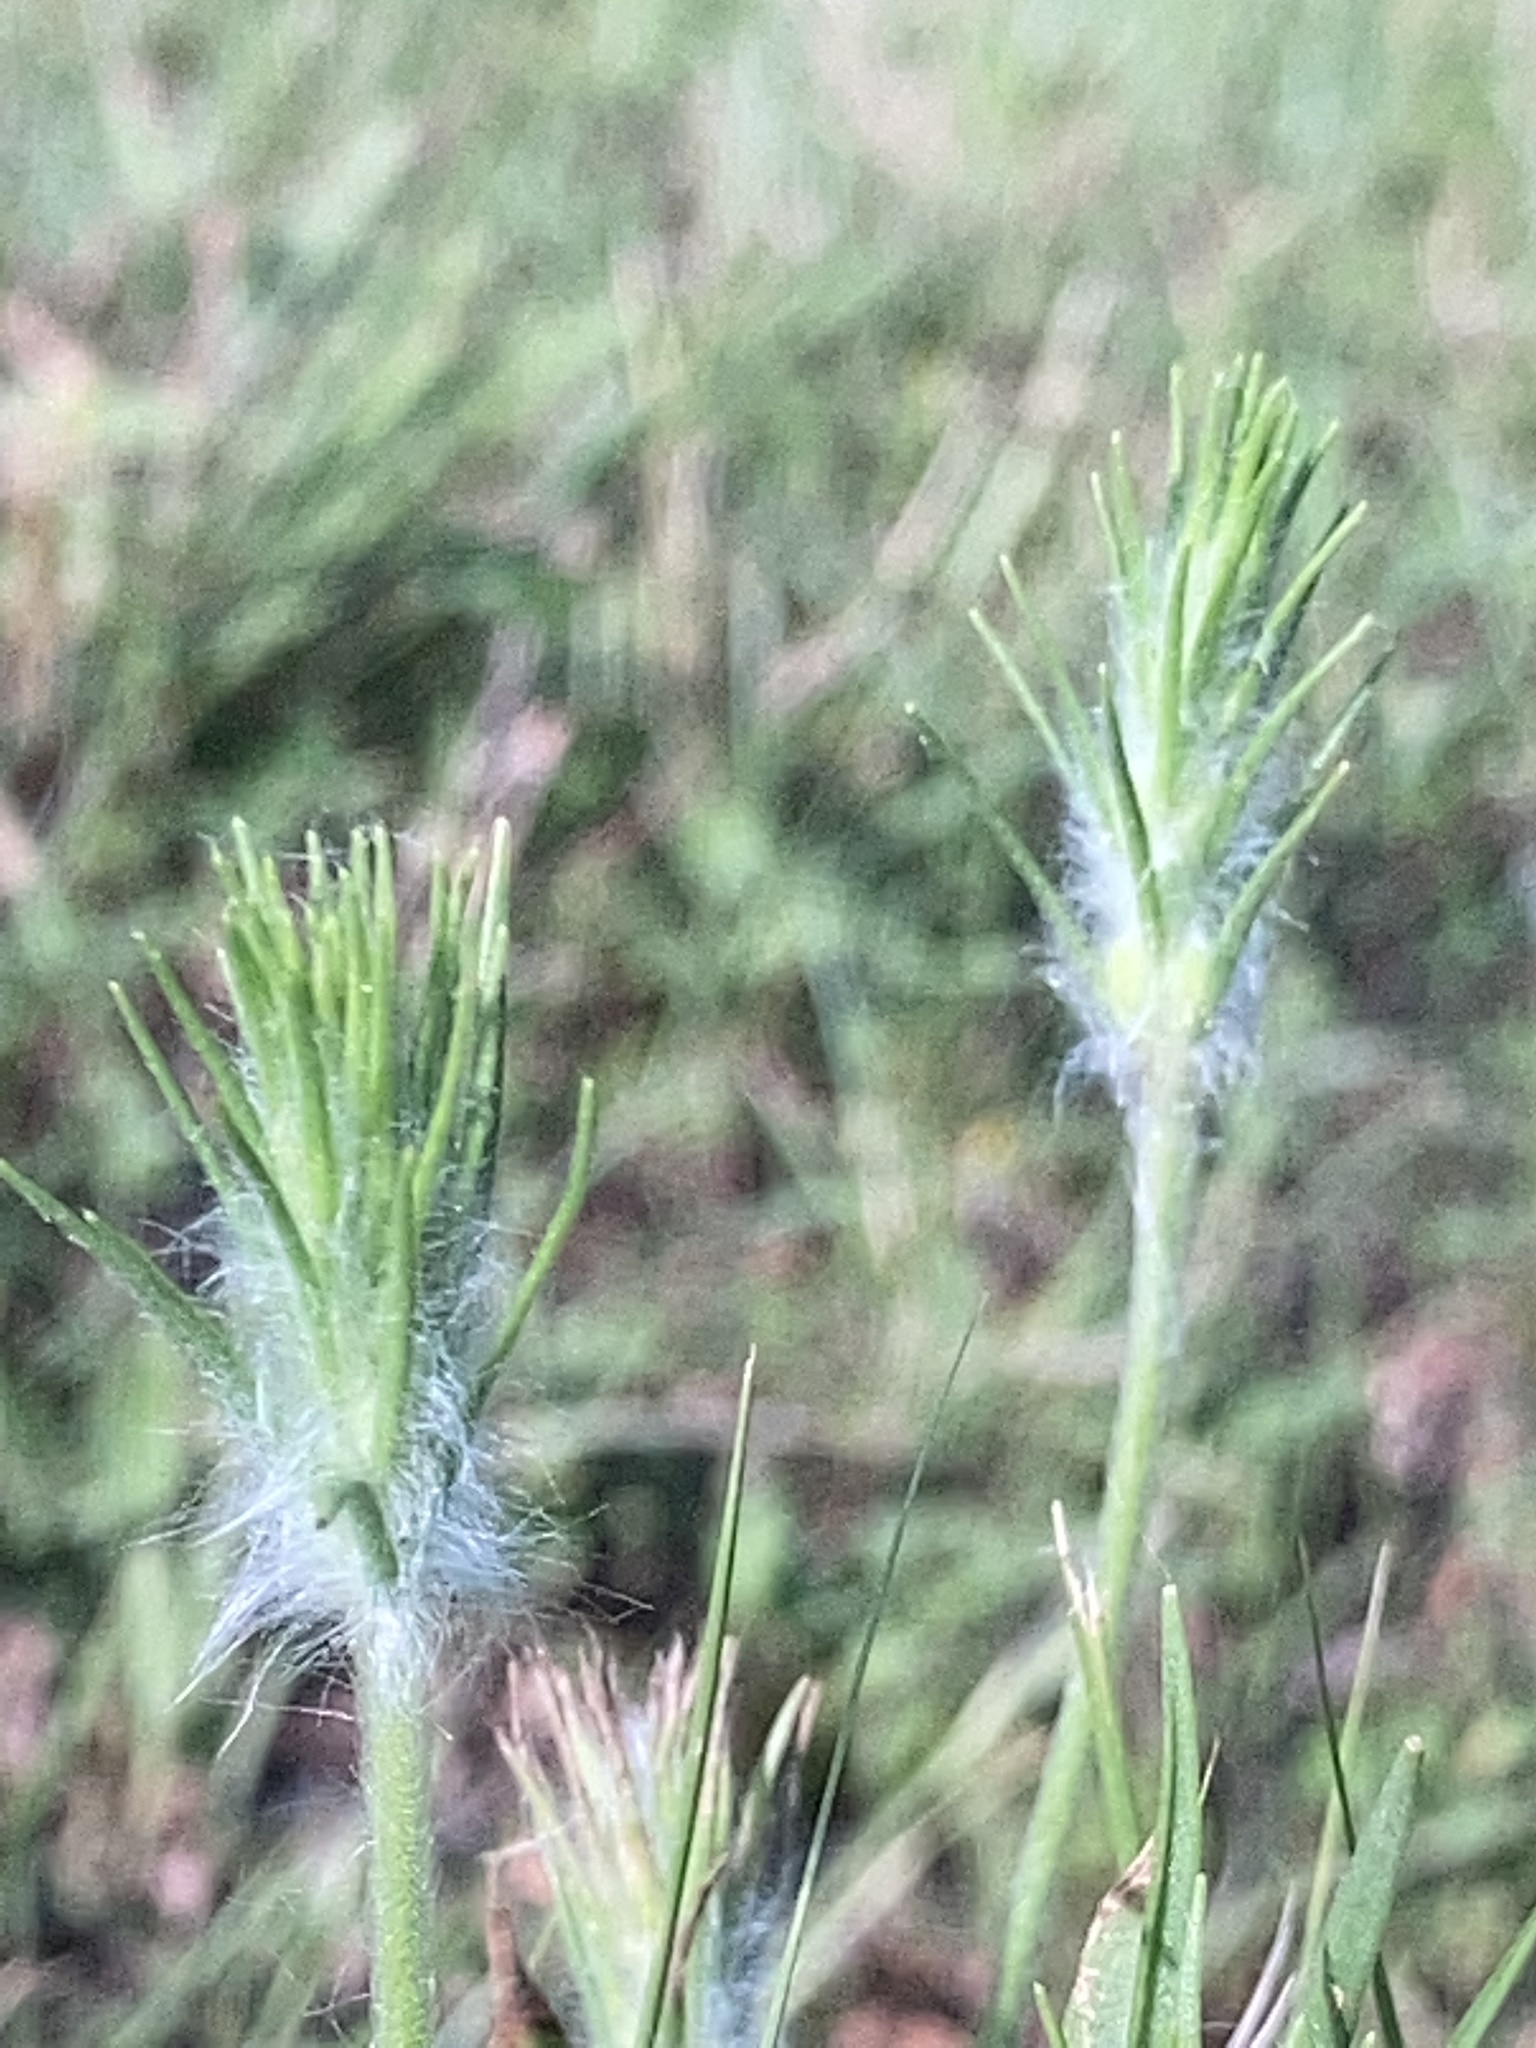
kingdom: Plantae
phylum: Tracheophyta
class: Magnoliopsida
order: Lamiales
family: Plantaginaceae
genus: Plantago
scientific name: Plantago aristata
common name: Bracted plantain
